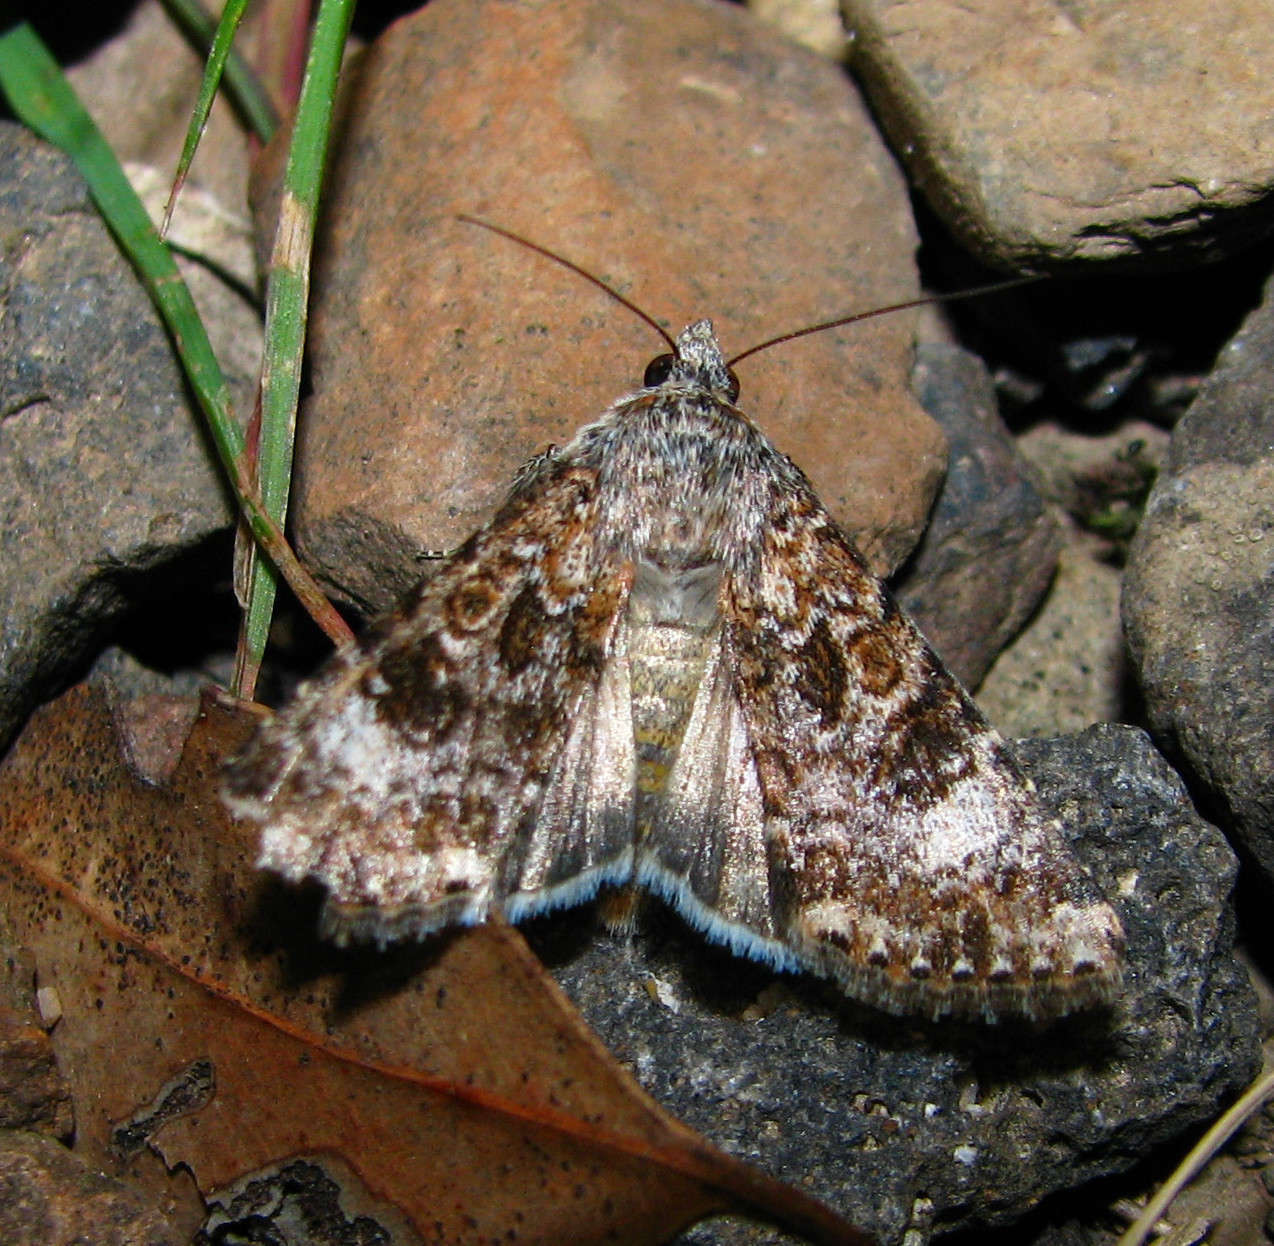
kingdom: Animalia
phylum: Arthropoda
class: Insecta
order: Lepidoptera
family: Noctuidae
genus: Heliothis
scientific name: Heliothis punctifera
